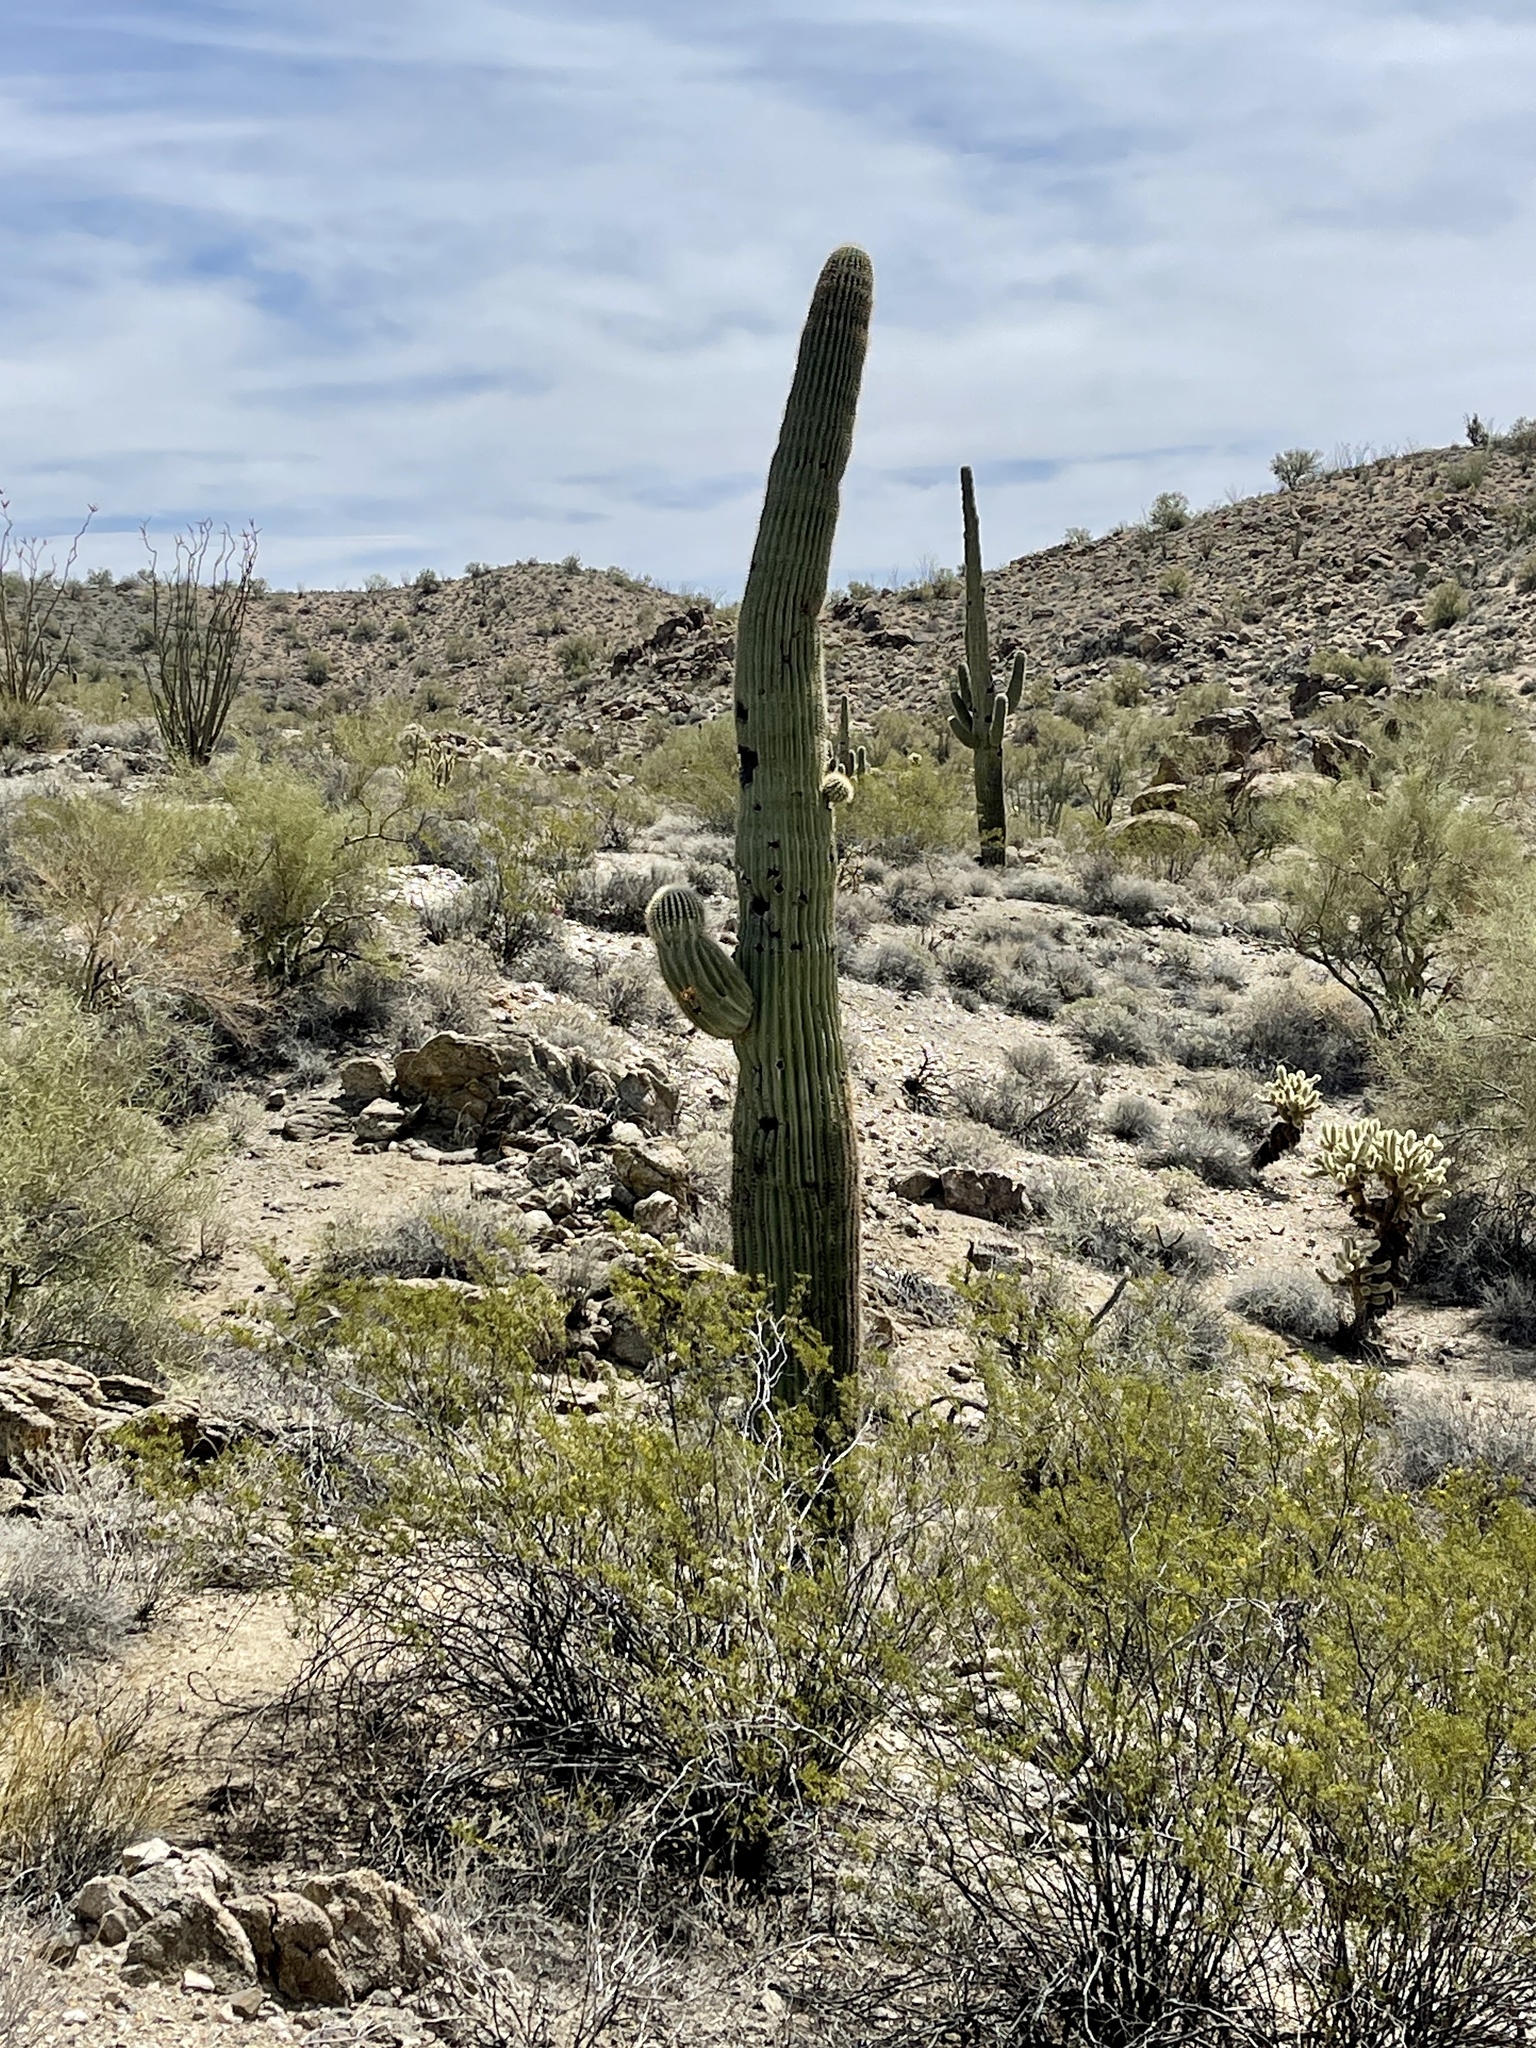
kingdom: Plantae
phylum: Tracheophyta
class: Magnoliopsida
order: Caryophyllales
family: Cactaceae
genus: Carnegiea
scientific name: Carnegiea gigantea
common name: Saguaro
